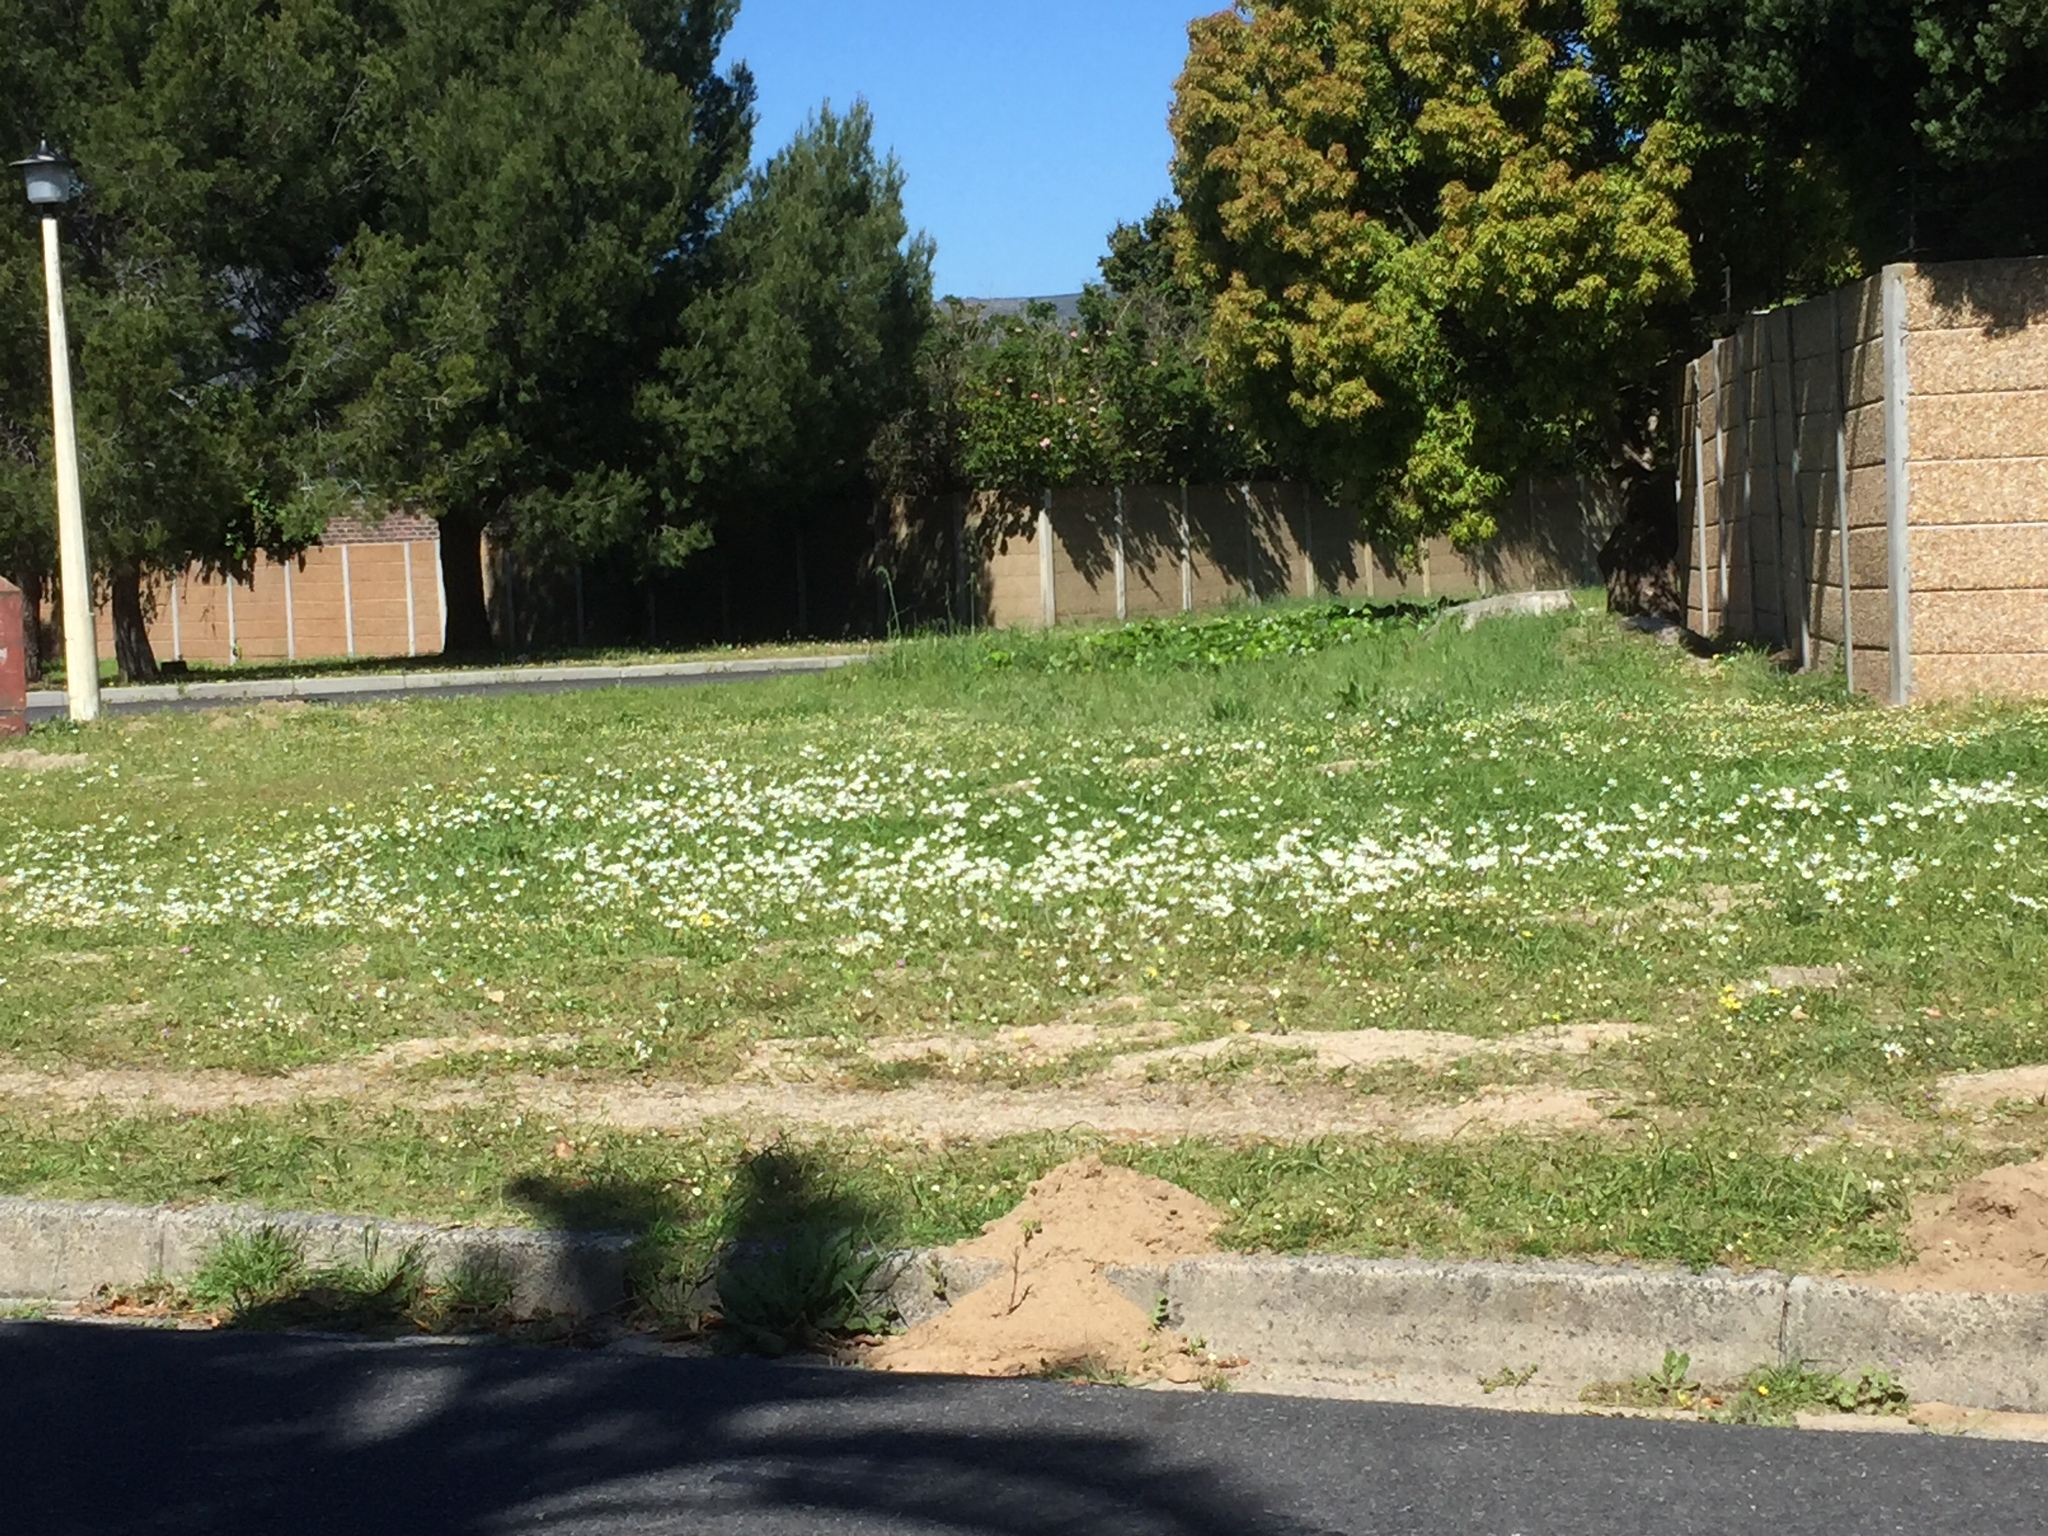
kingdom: Plantae
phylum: Tracheophyta
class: Liliopsida
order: Asparagales
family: Iridaceae
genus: Sparaxis
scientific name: Sparaxis bulbifera
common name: Harlequin-flower
